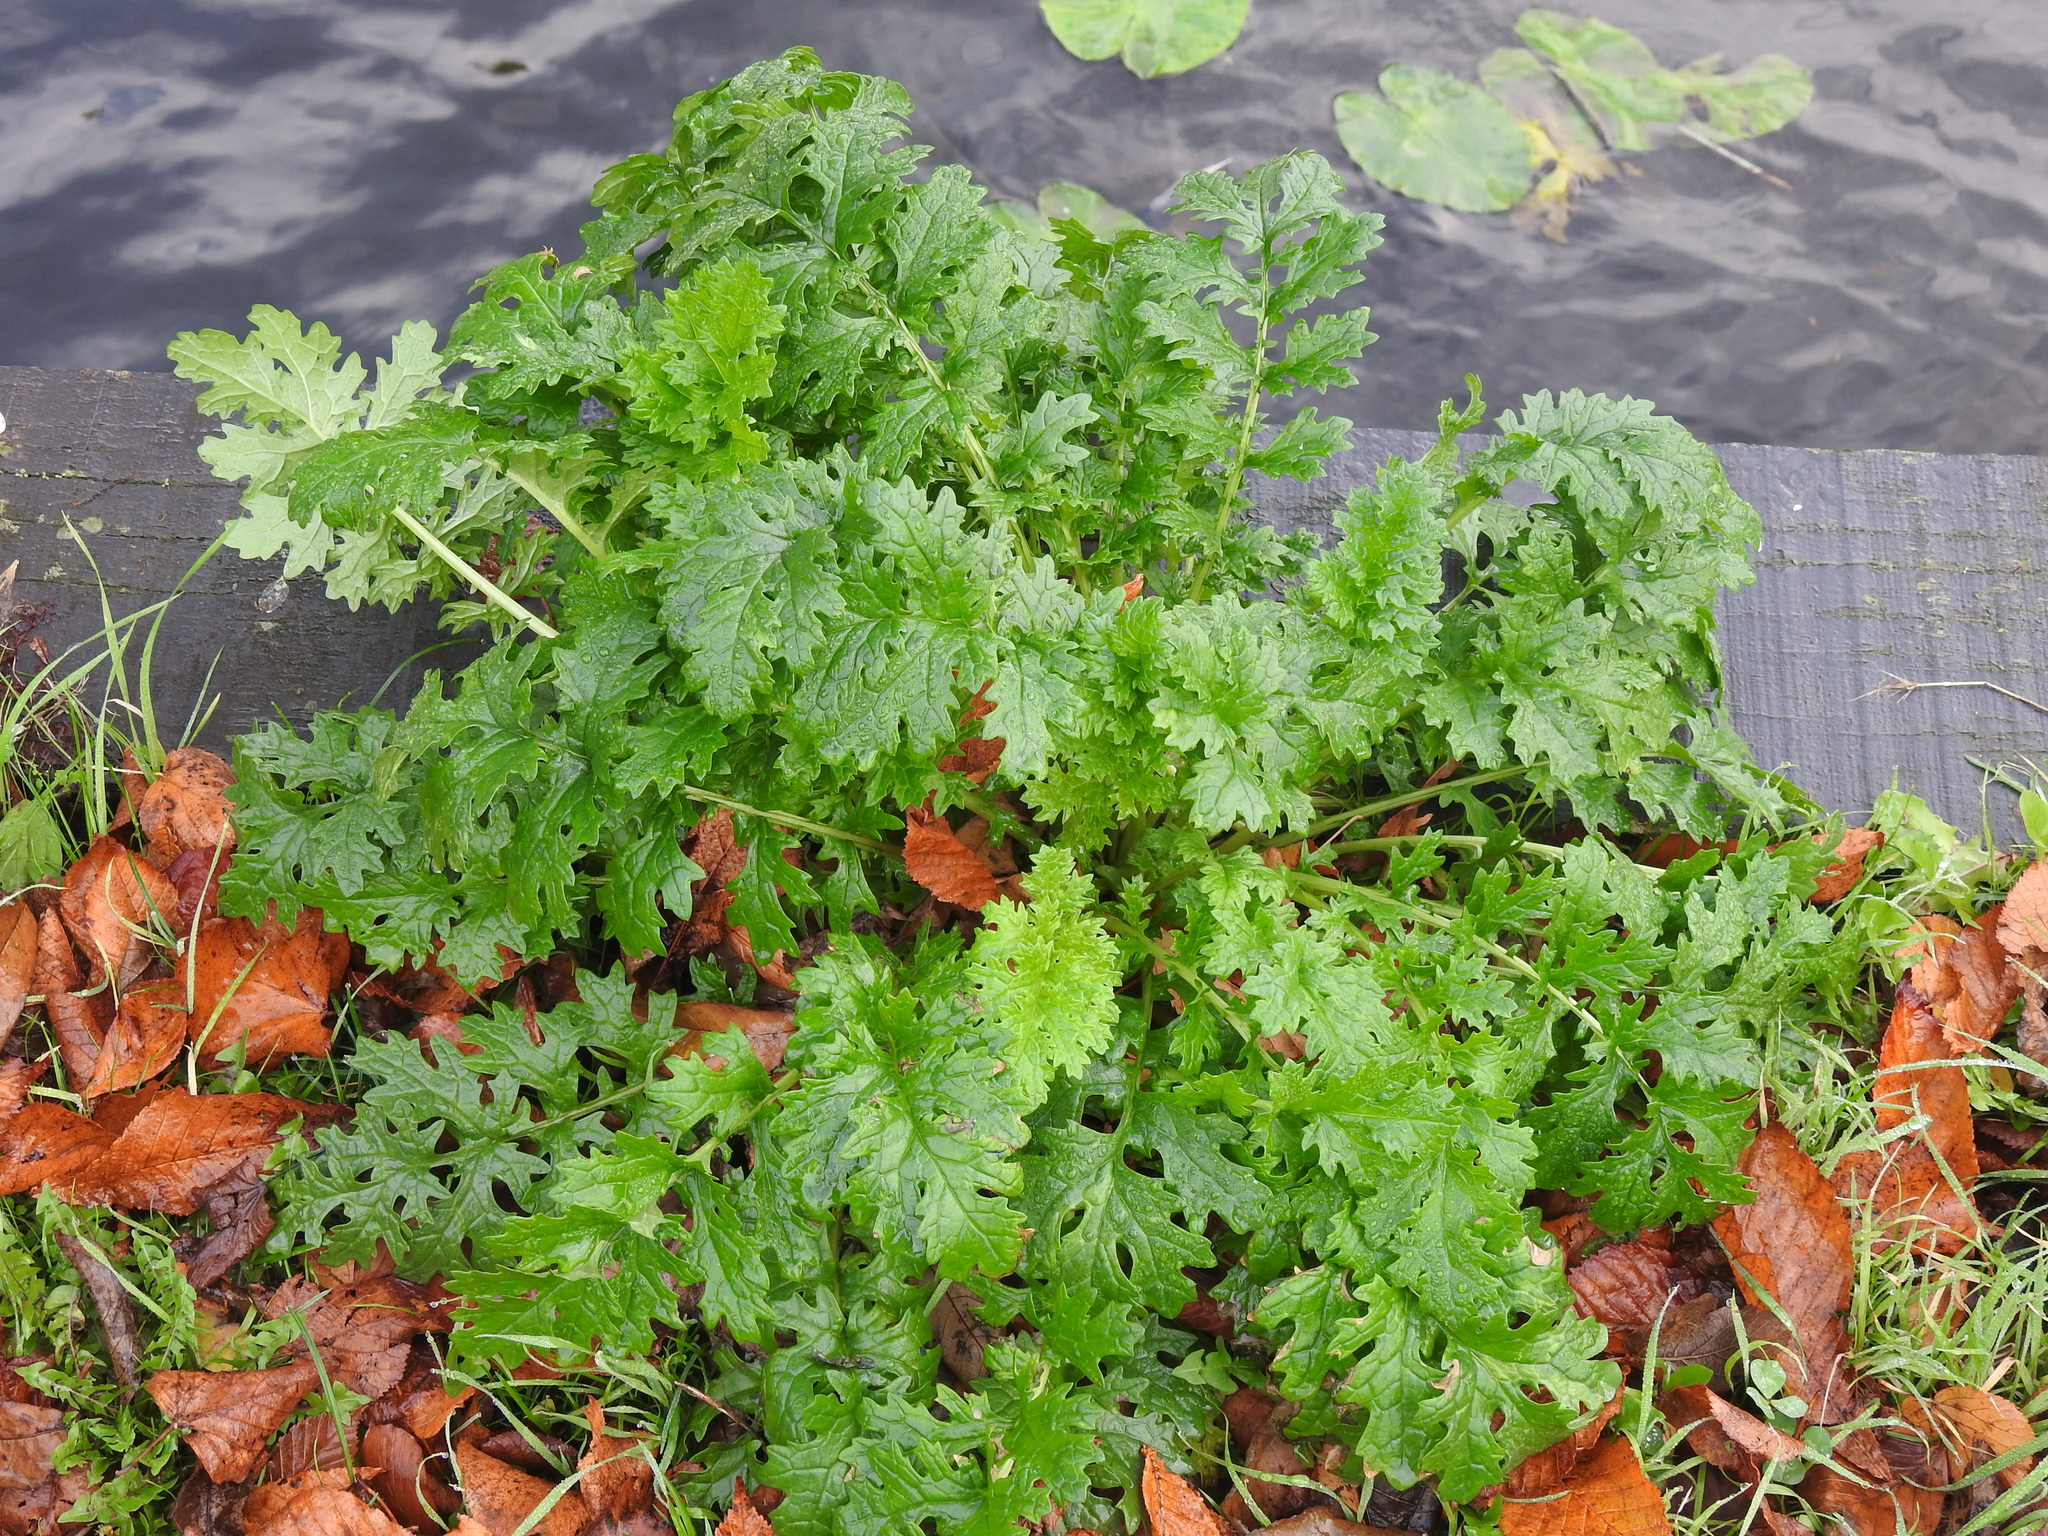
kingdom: Plantae
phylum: Tracheophyta
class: Magnoliopsida
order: Asterales
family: Asteraceae
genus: Jacobaea
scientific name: Jacobaea vulgaris
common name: Stinking willie
